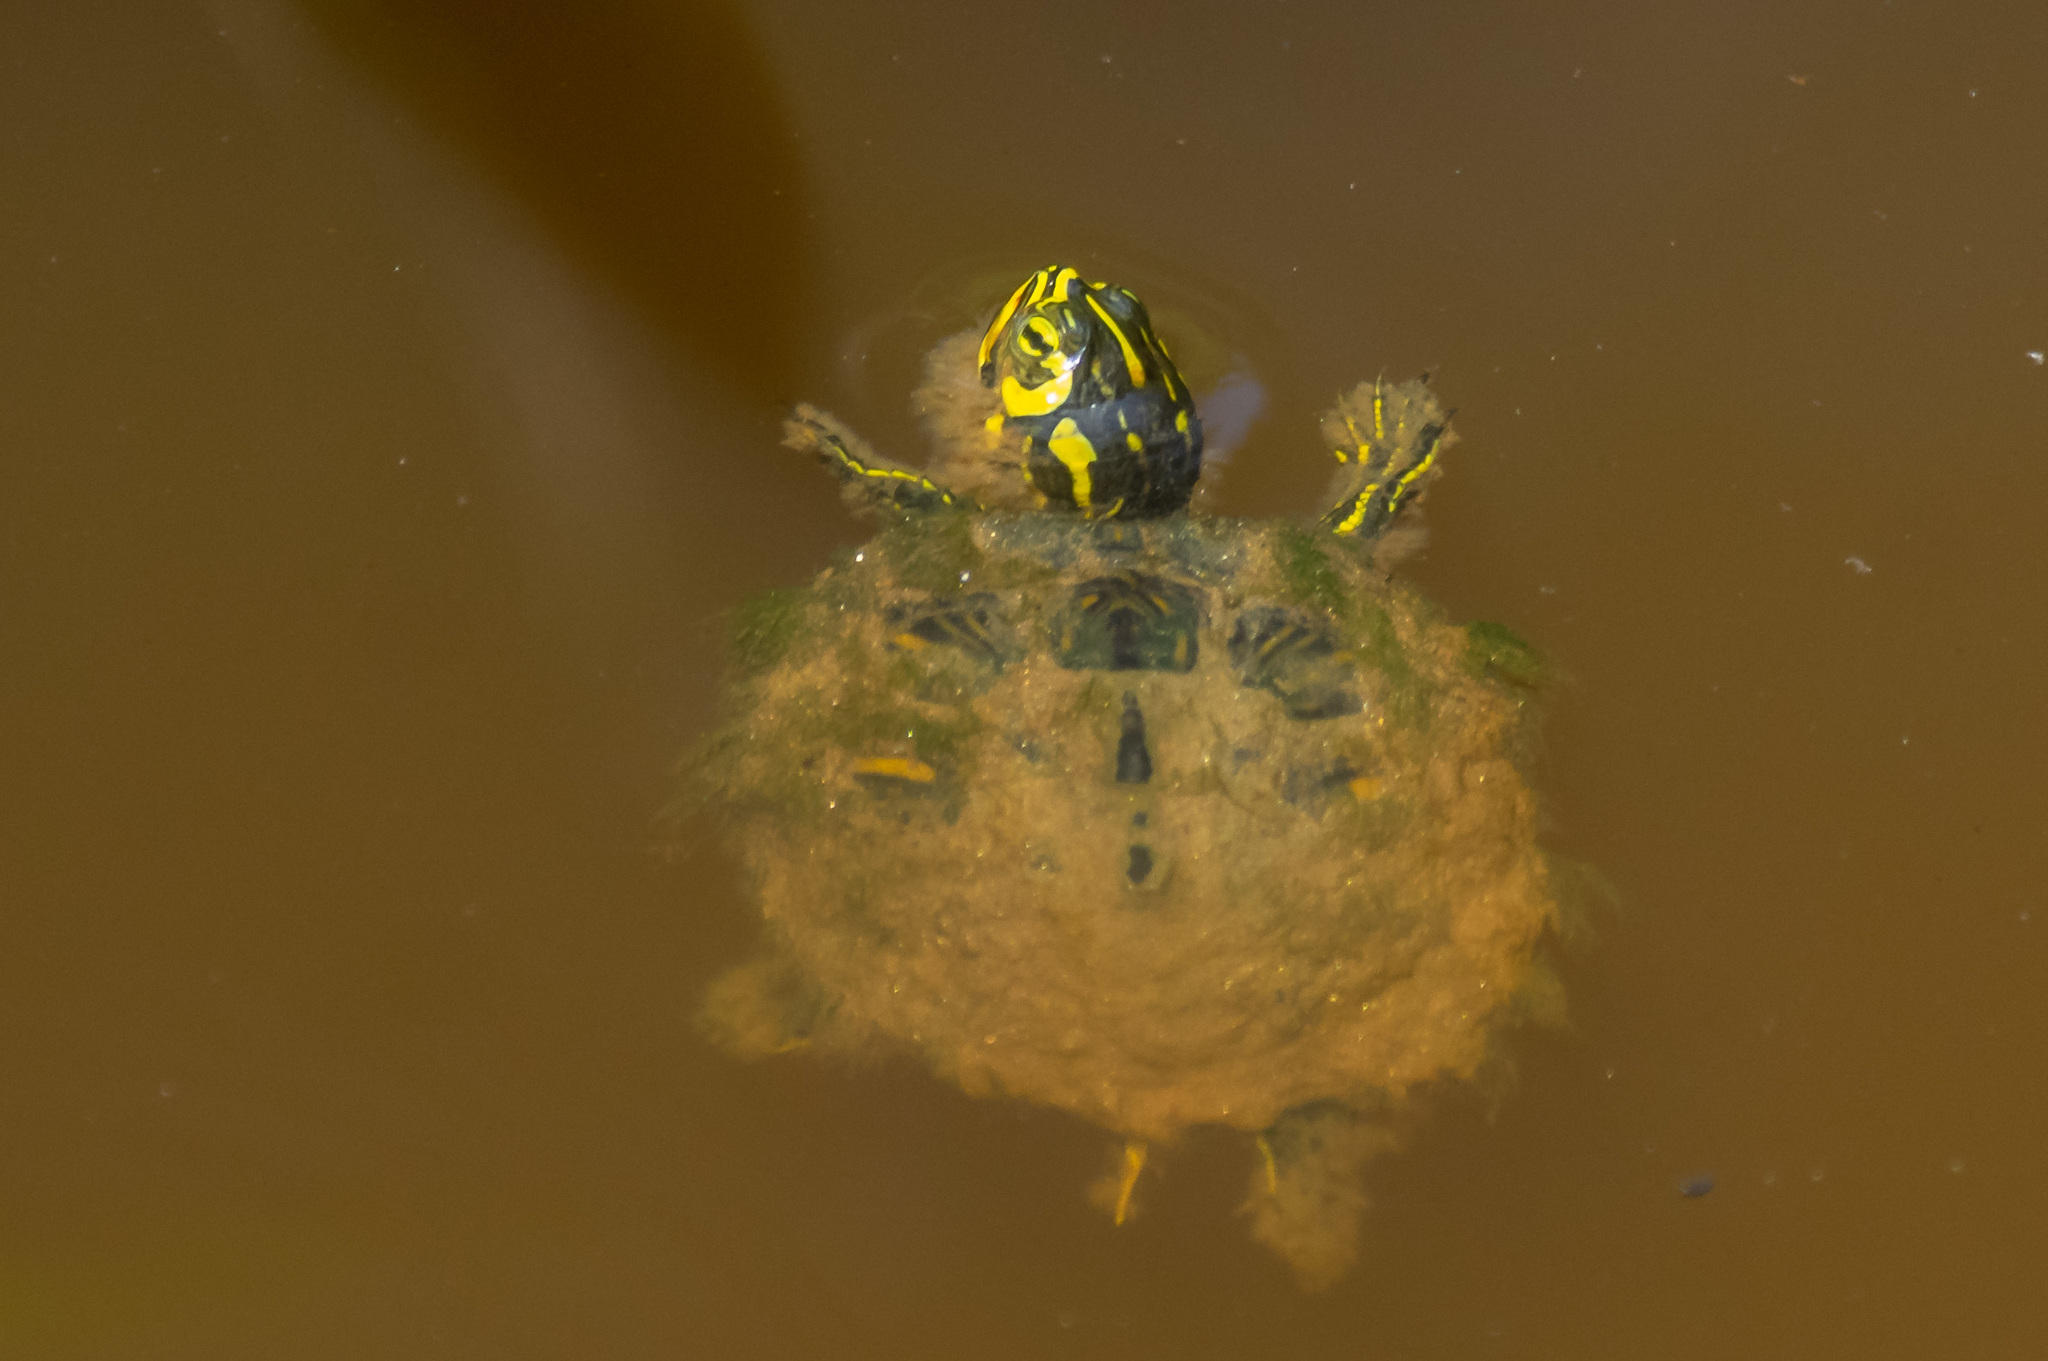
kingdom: Animalia
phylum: Chordata
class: Testudines
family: Emydidae
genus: Trachemys
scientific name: Trachemys scripta
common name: Slider
